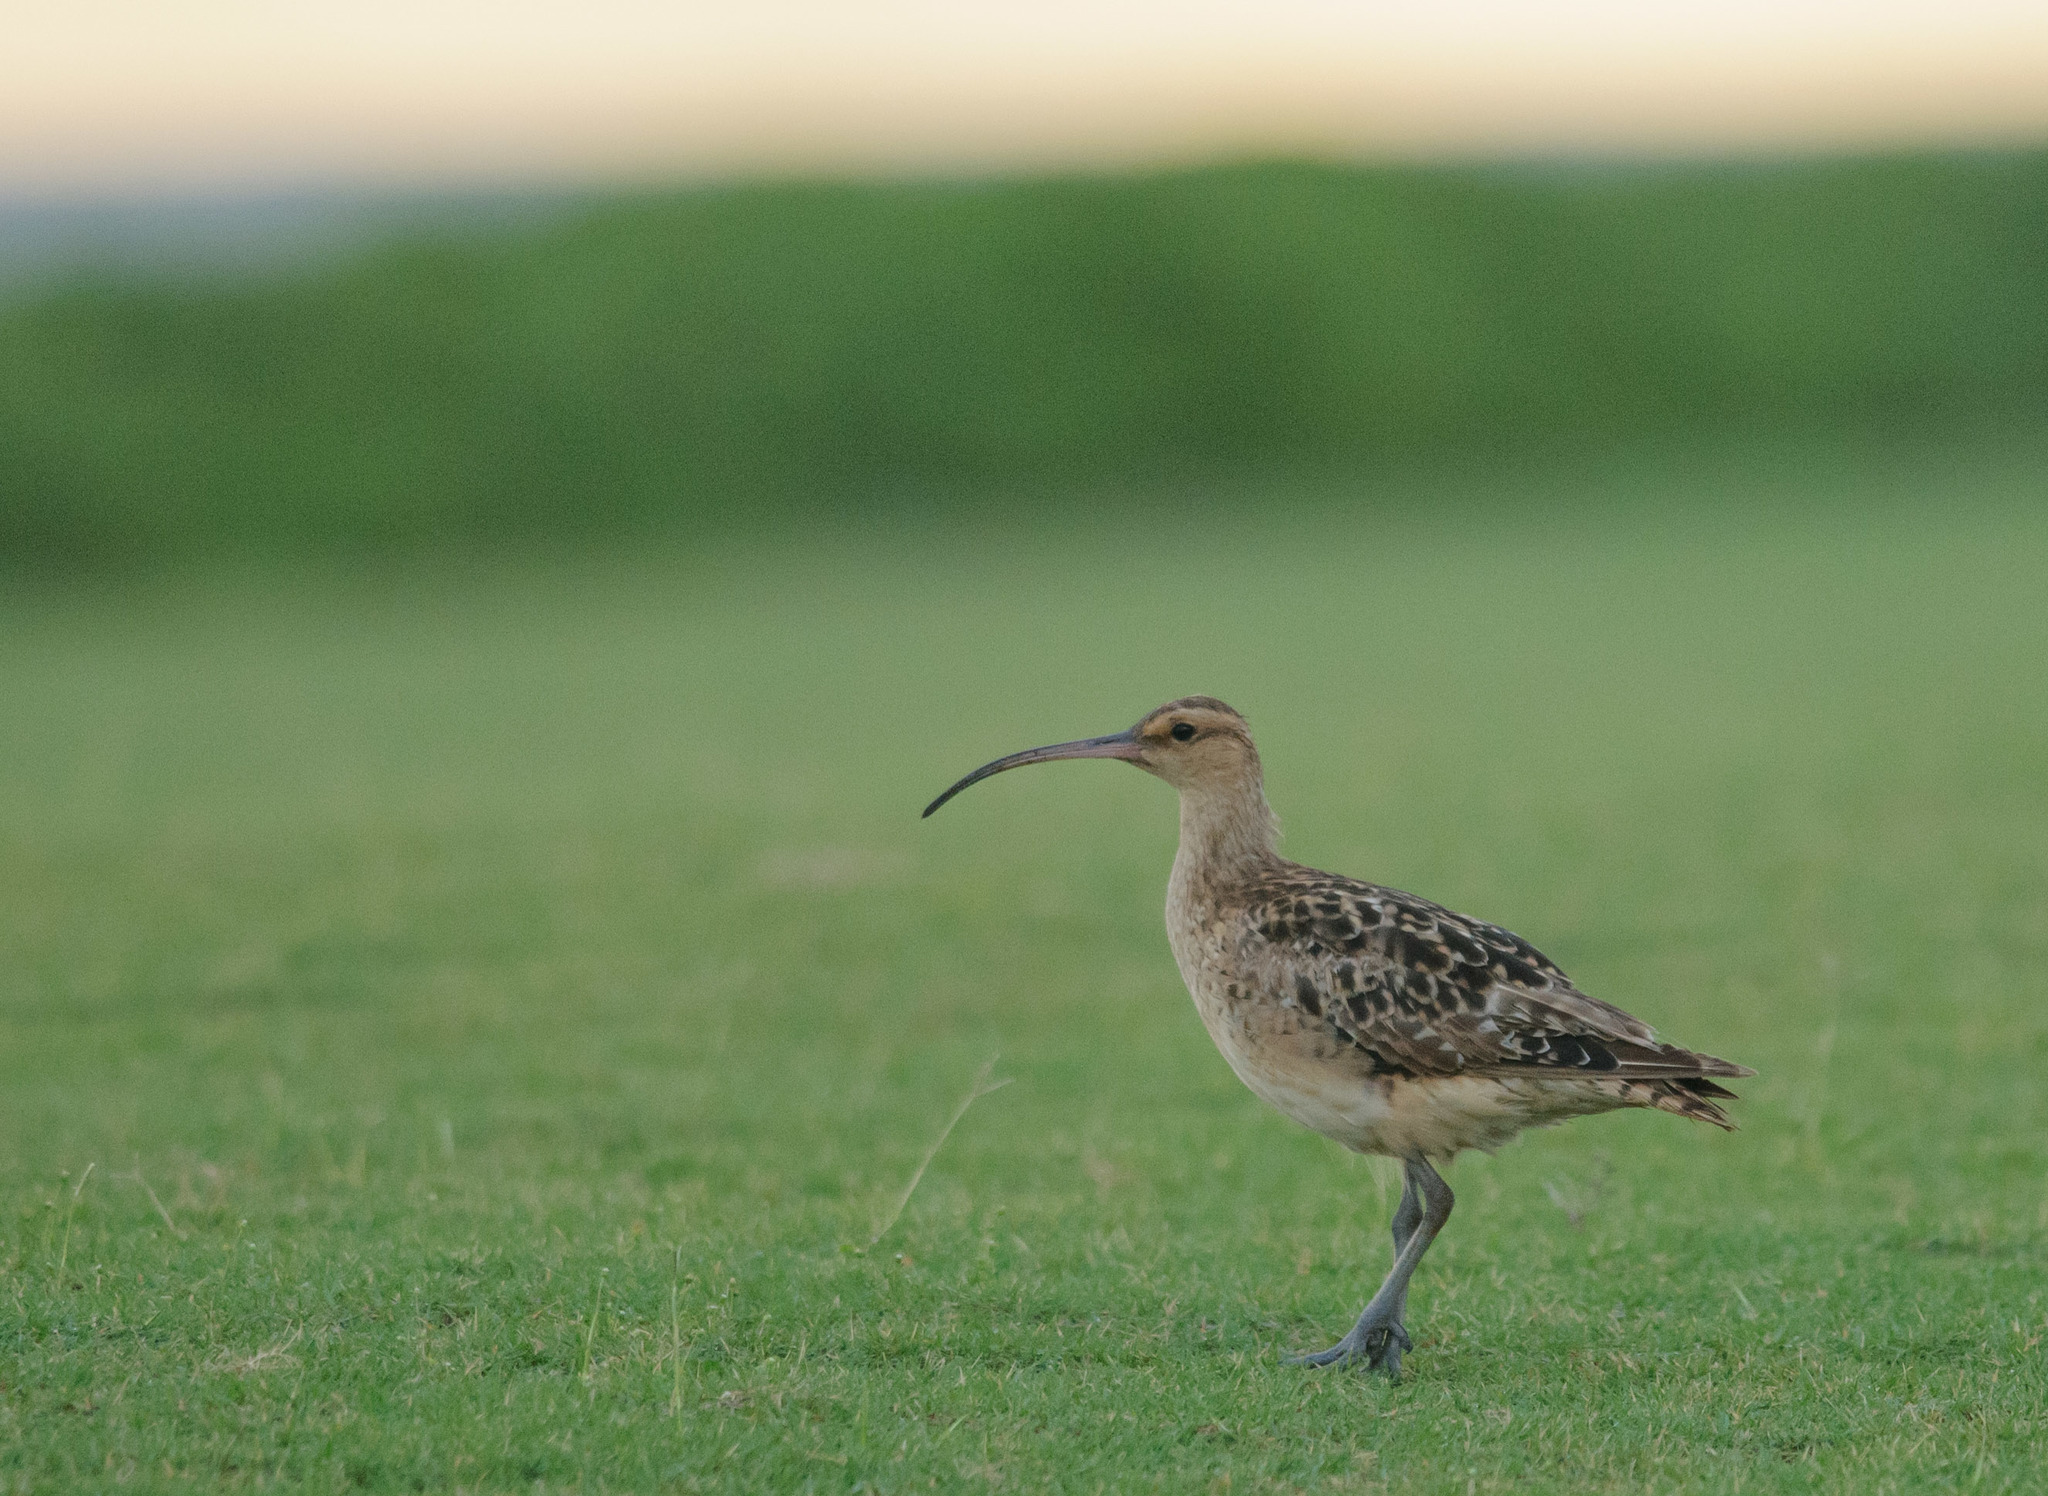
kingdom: Animalia
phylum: Chordata
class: Aves
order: Charadriiformes
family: Scolopacidae
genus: Numenius
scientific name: Numenius tahitiensis
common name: Bristle-thighed curlew
